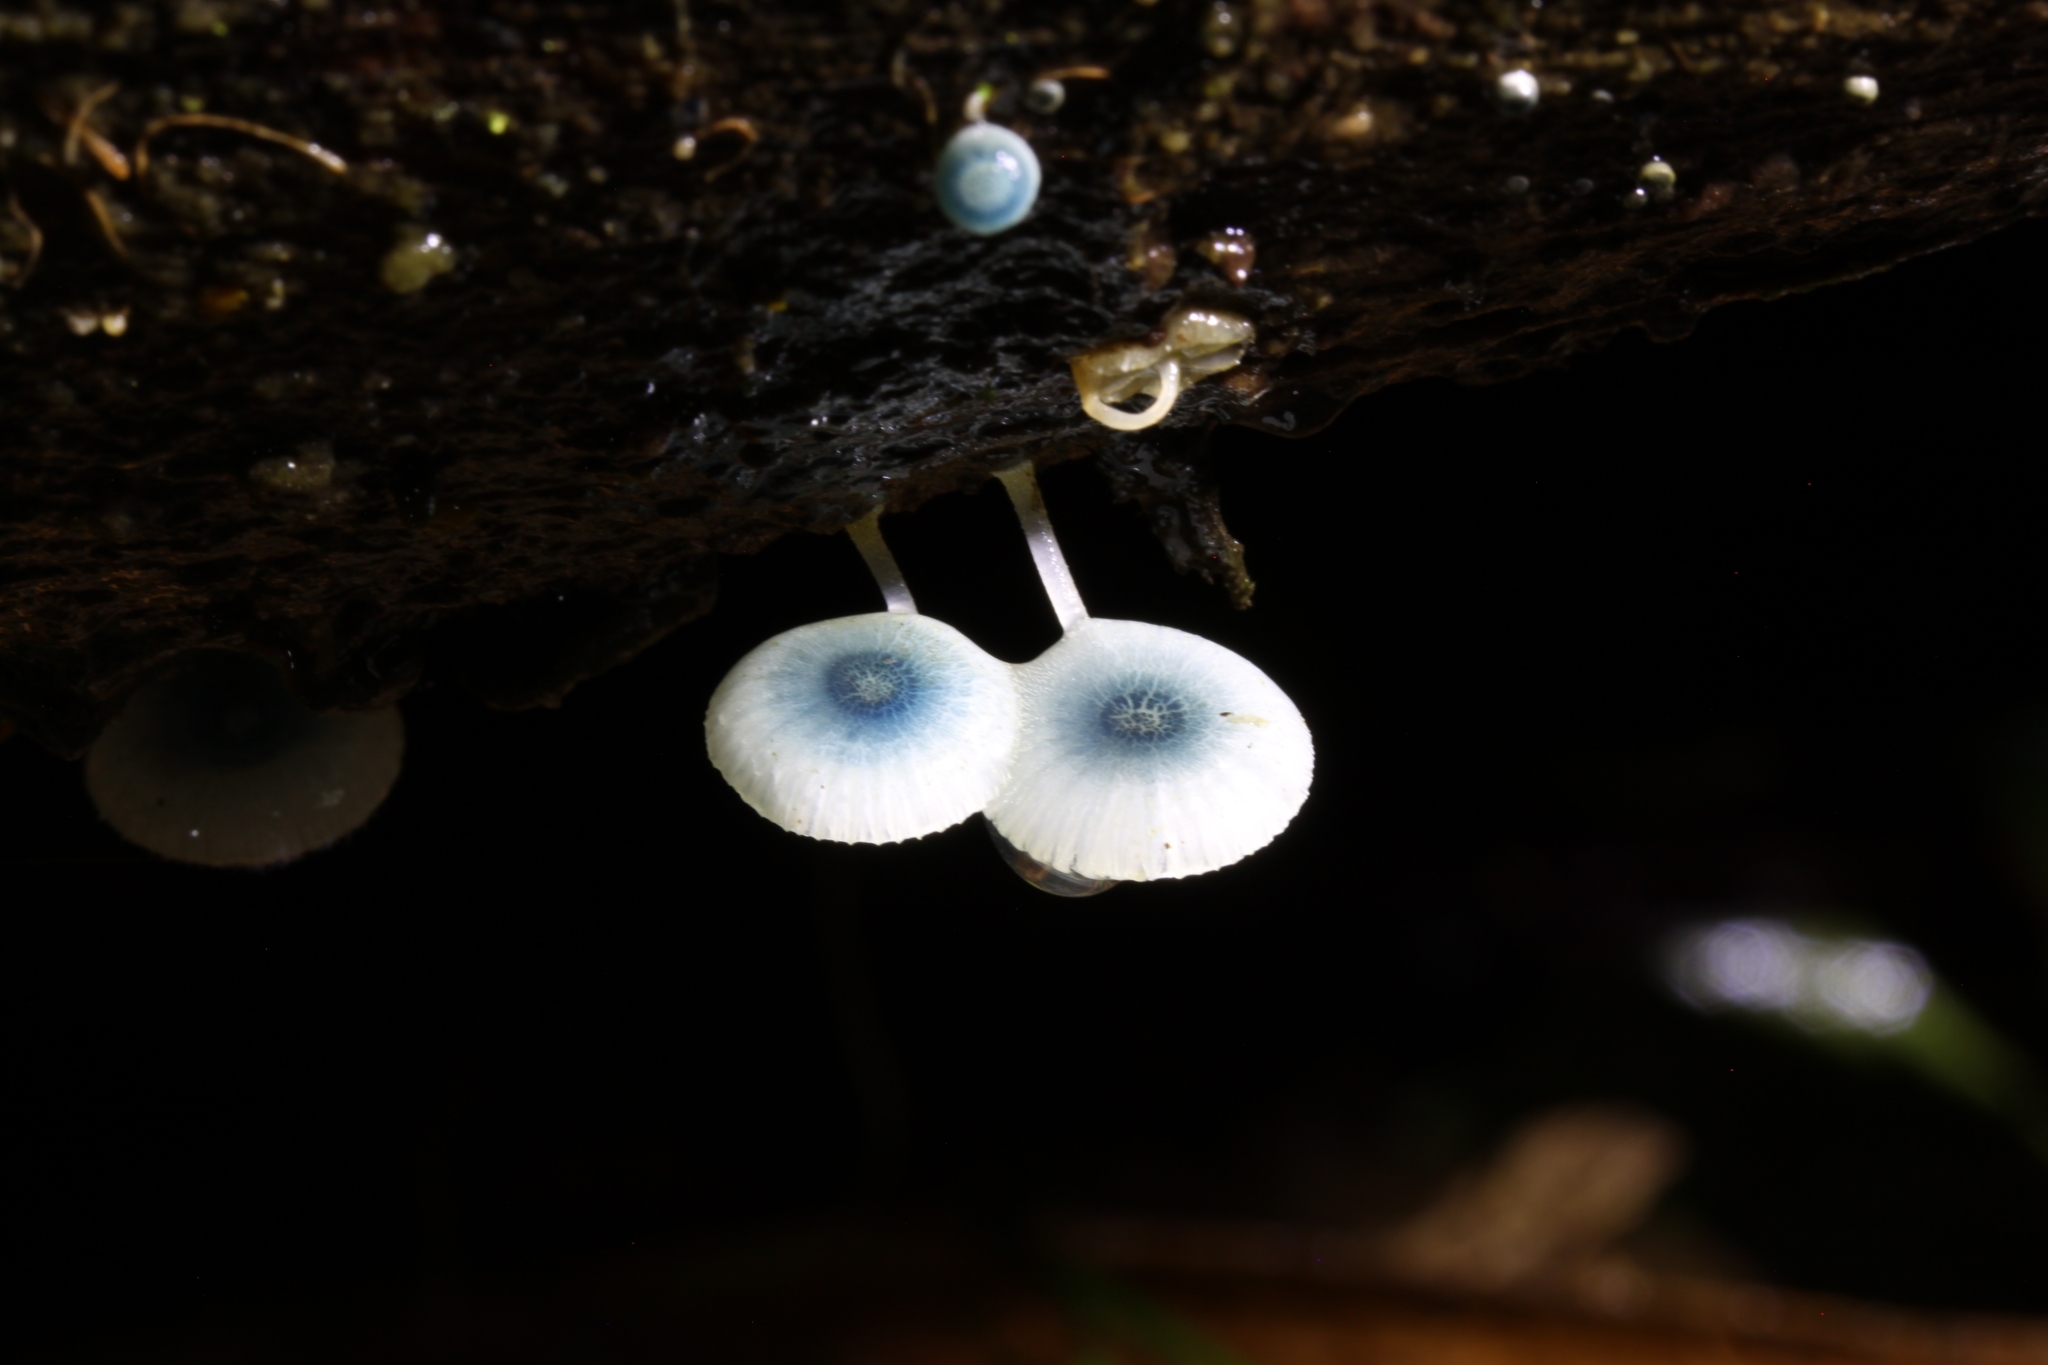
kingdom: Fungi
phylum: Basidiomycota
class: Agaricomycetes
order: Agaricales
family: Mycenaceae
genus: Mycena
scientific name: Mycena interrupta
